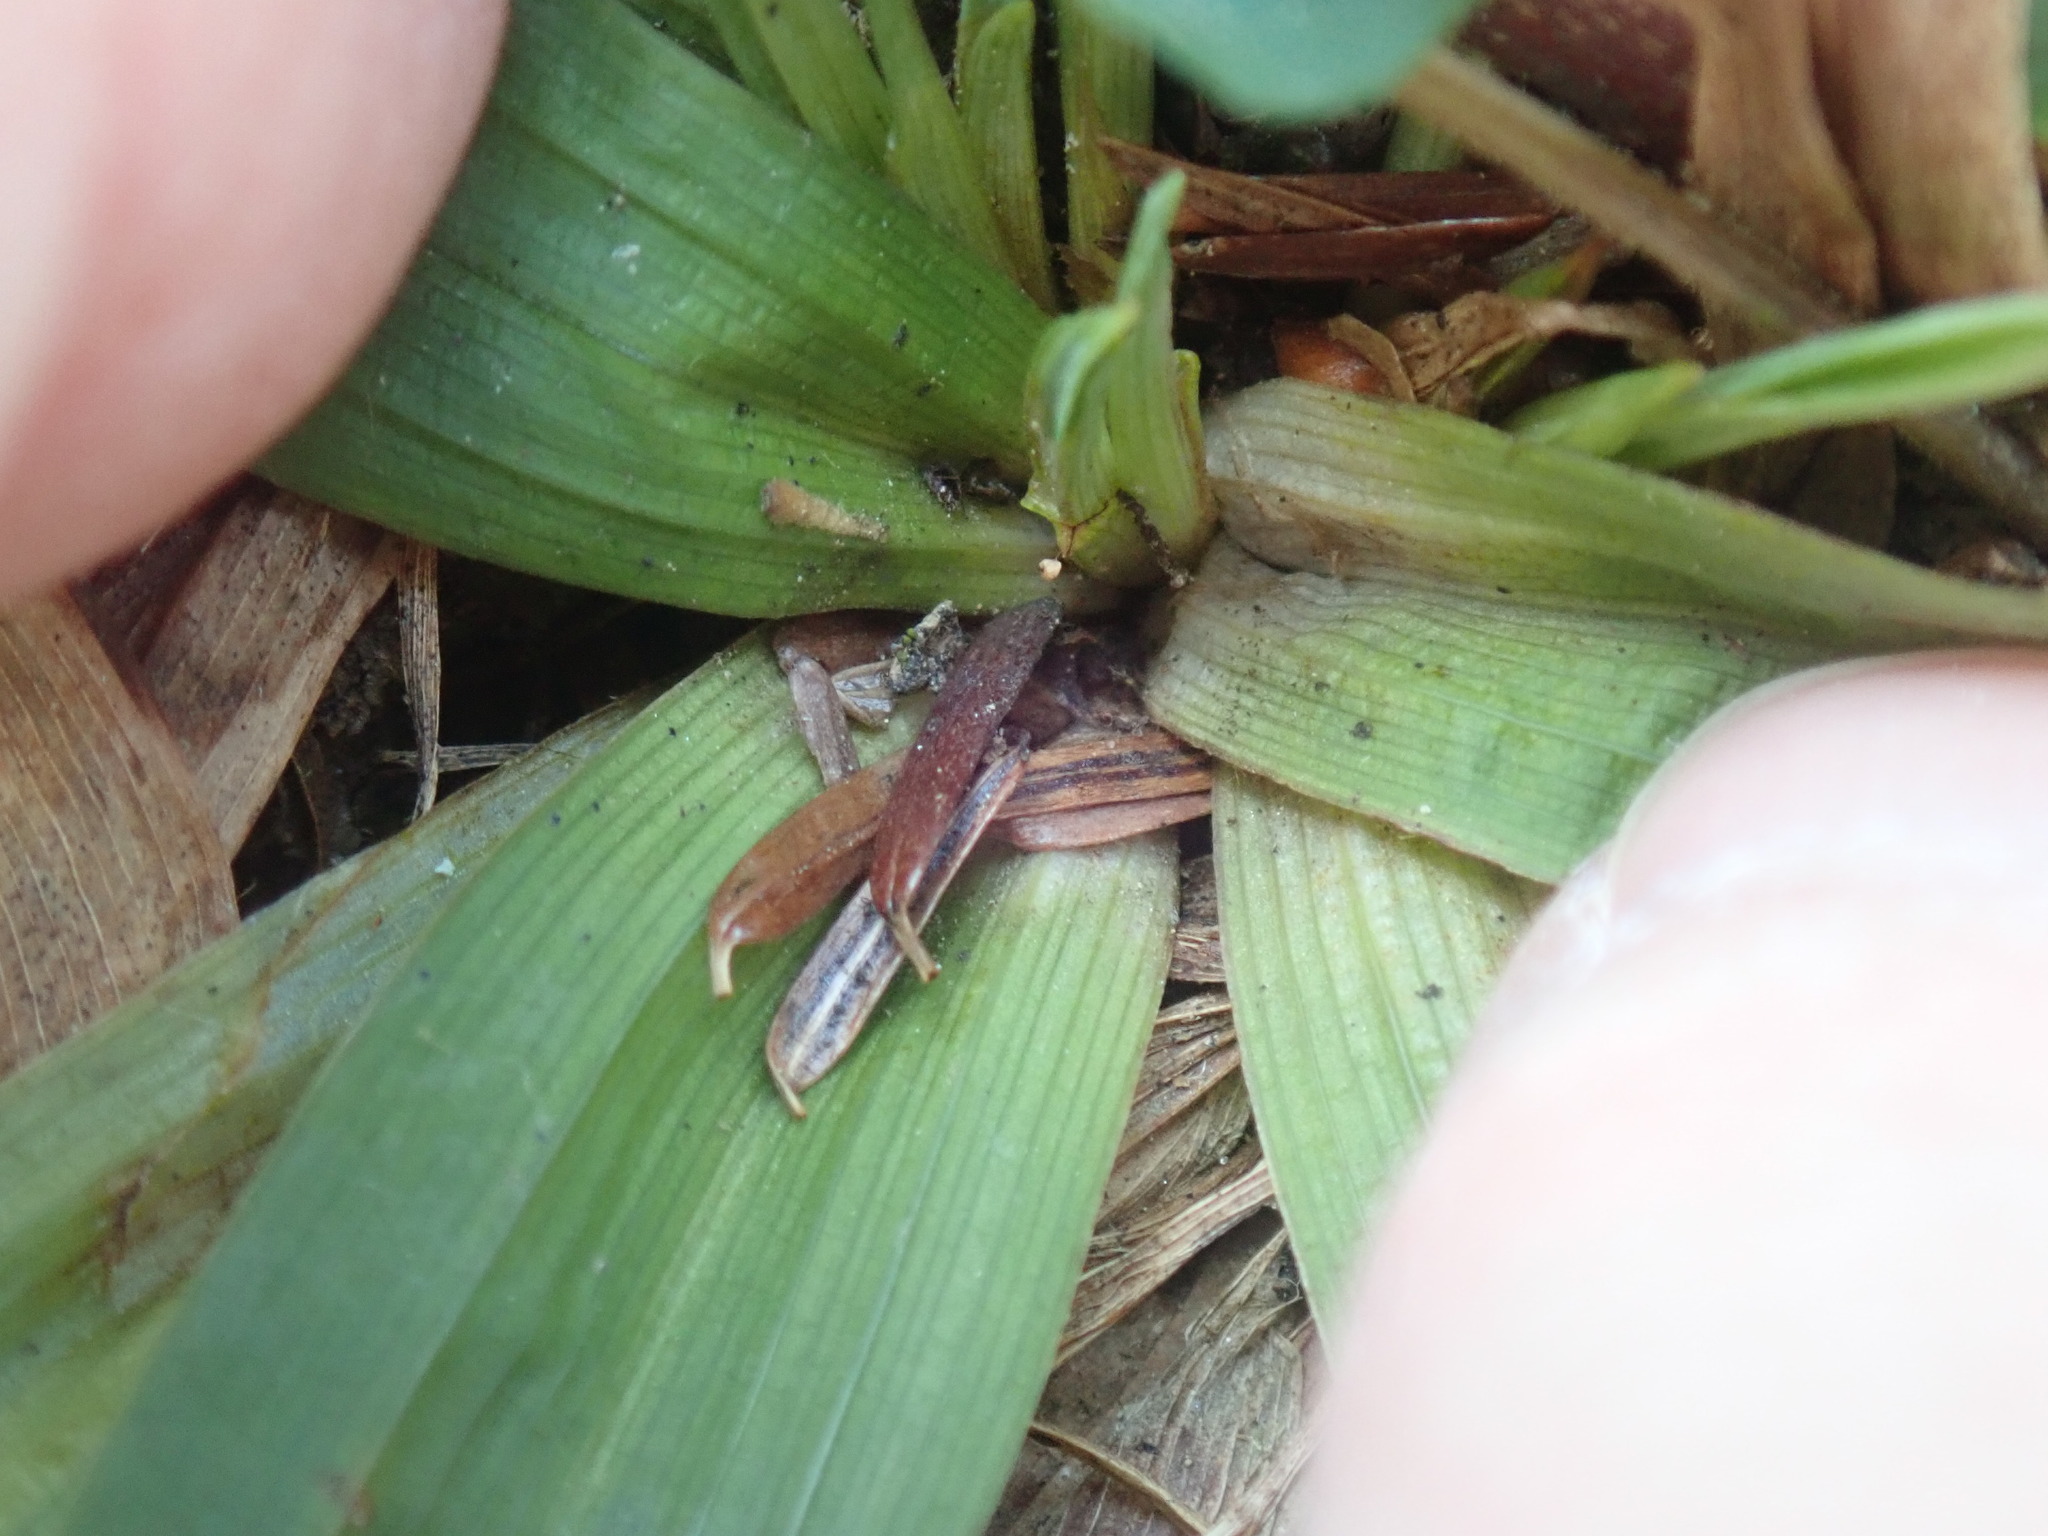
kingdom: Plantae
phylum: Tracheophyta
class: Liliopsida
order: Poales
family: Cyperaceae
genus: Carex
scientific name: Carex platyphylla
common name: Broad-leaved sedge
